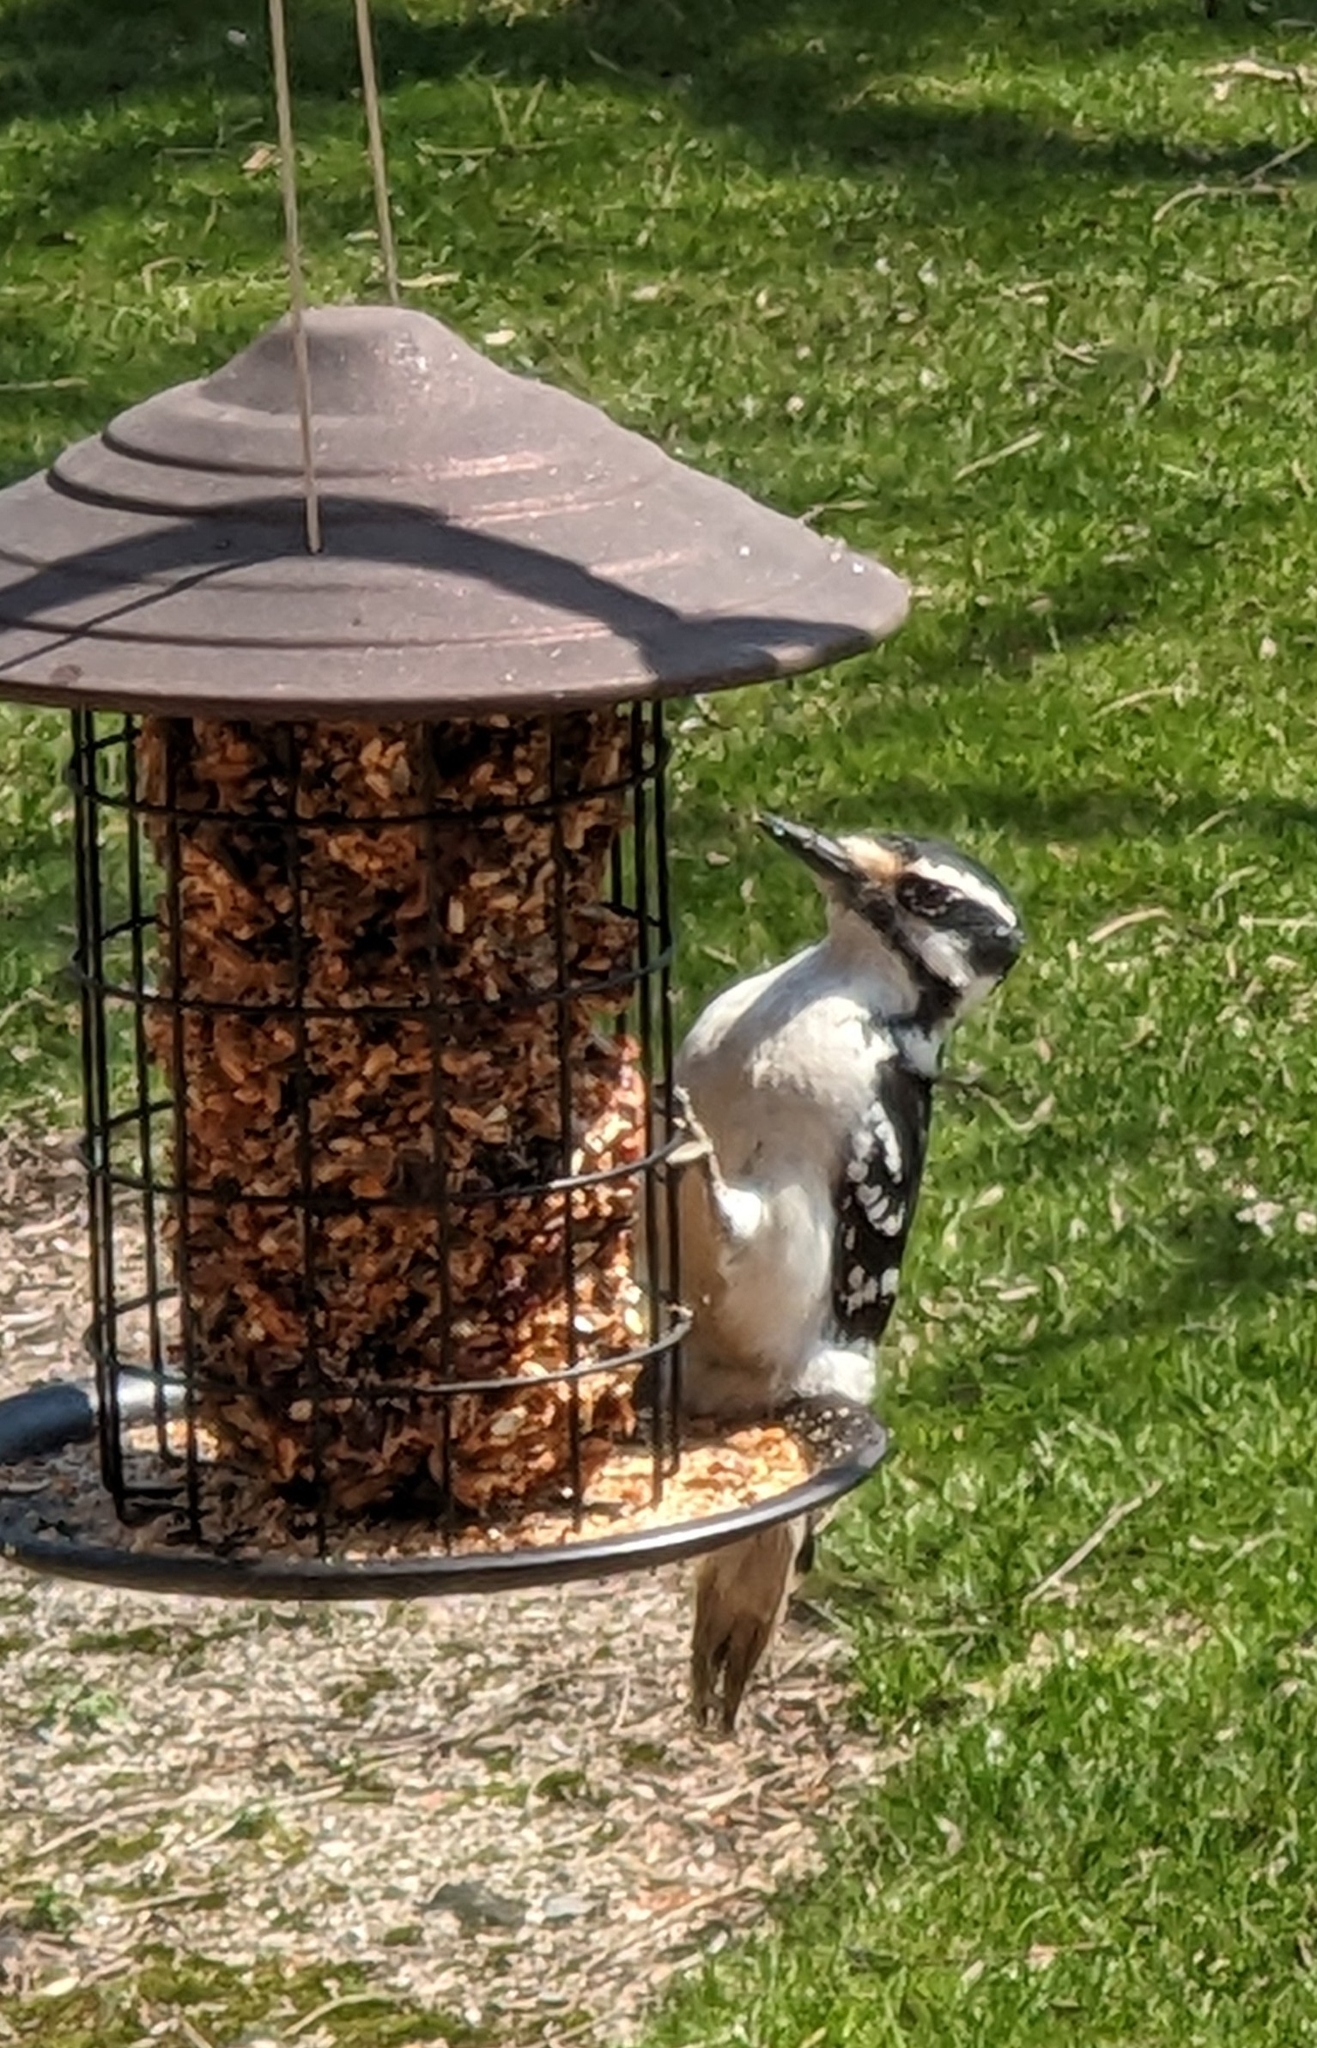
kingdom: Animalia
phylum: Chordata
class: Aves
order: Piciformes
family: Picidae
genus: Leuconotopicus
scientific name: Leuconotopicus villosus
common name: Hairy woodpecker
